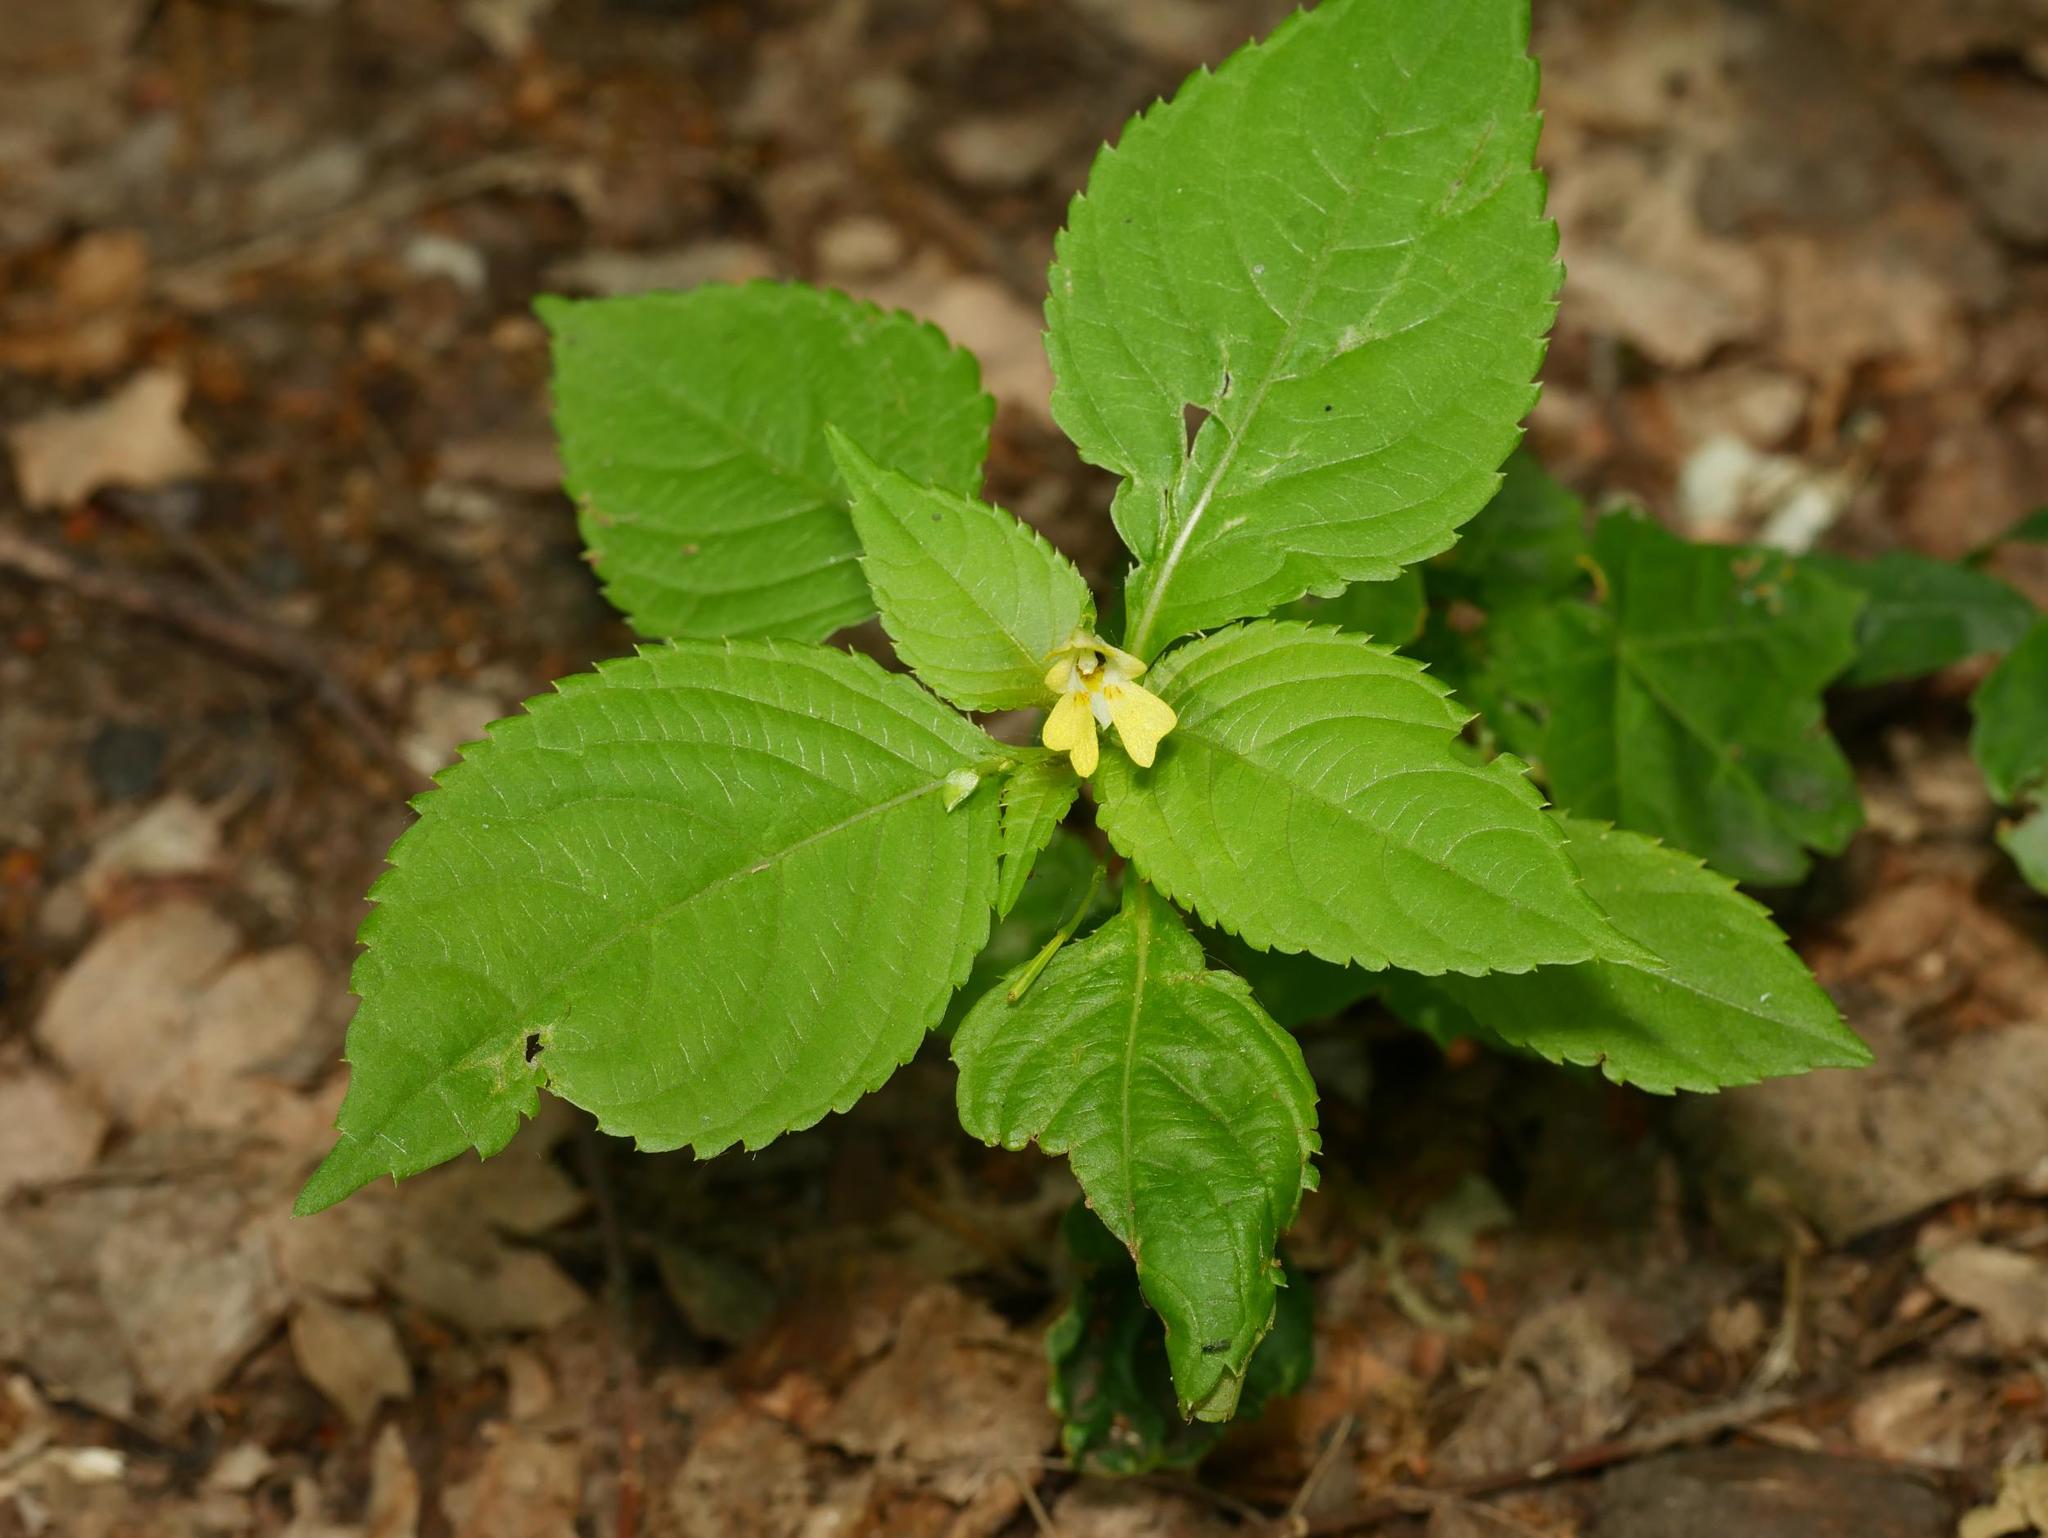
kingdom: Plantae
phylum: Tracheophyta
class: Magnoliopsida
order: Ericales
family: Balsaminaceae
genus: Impatiens
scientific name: Impatiens parviflora
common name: Small balsam
